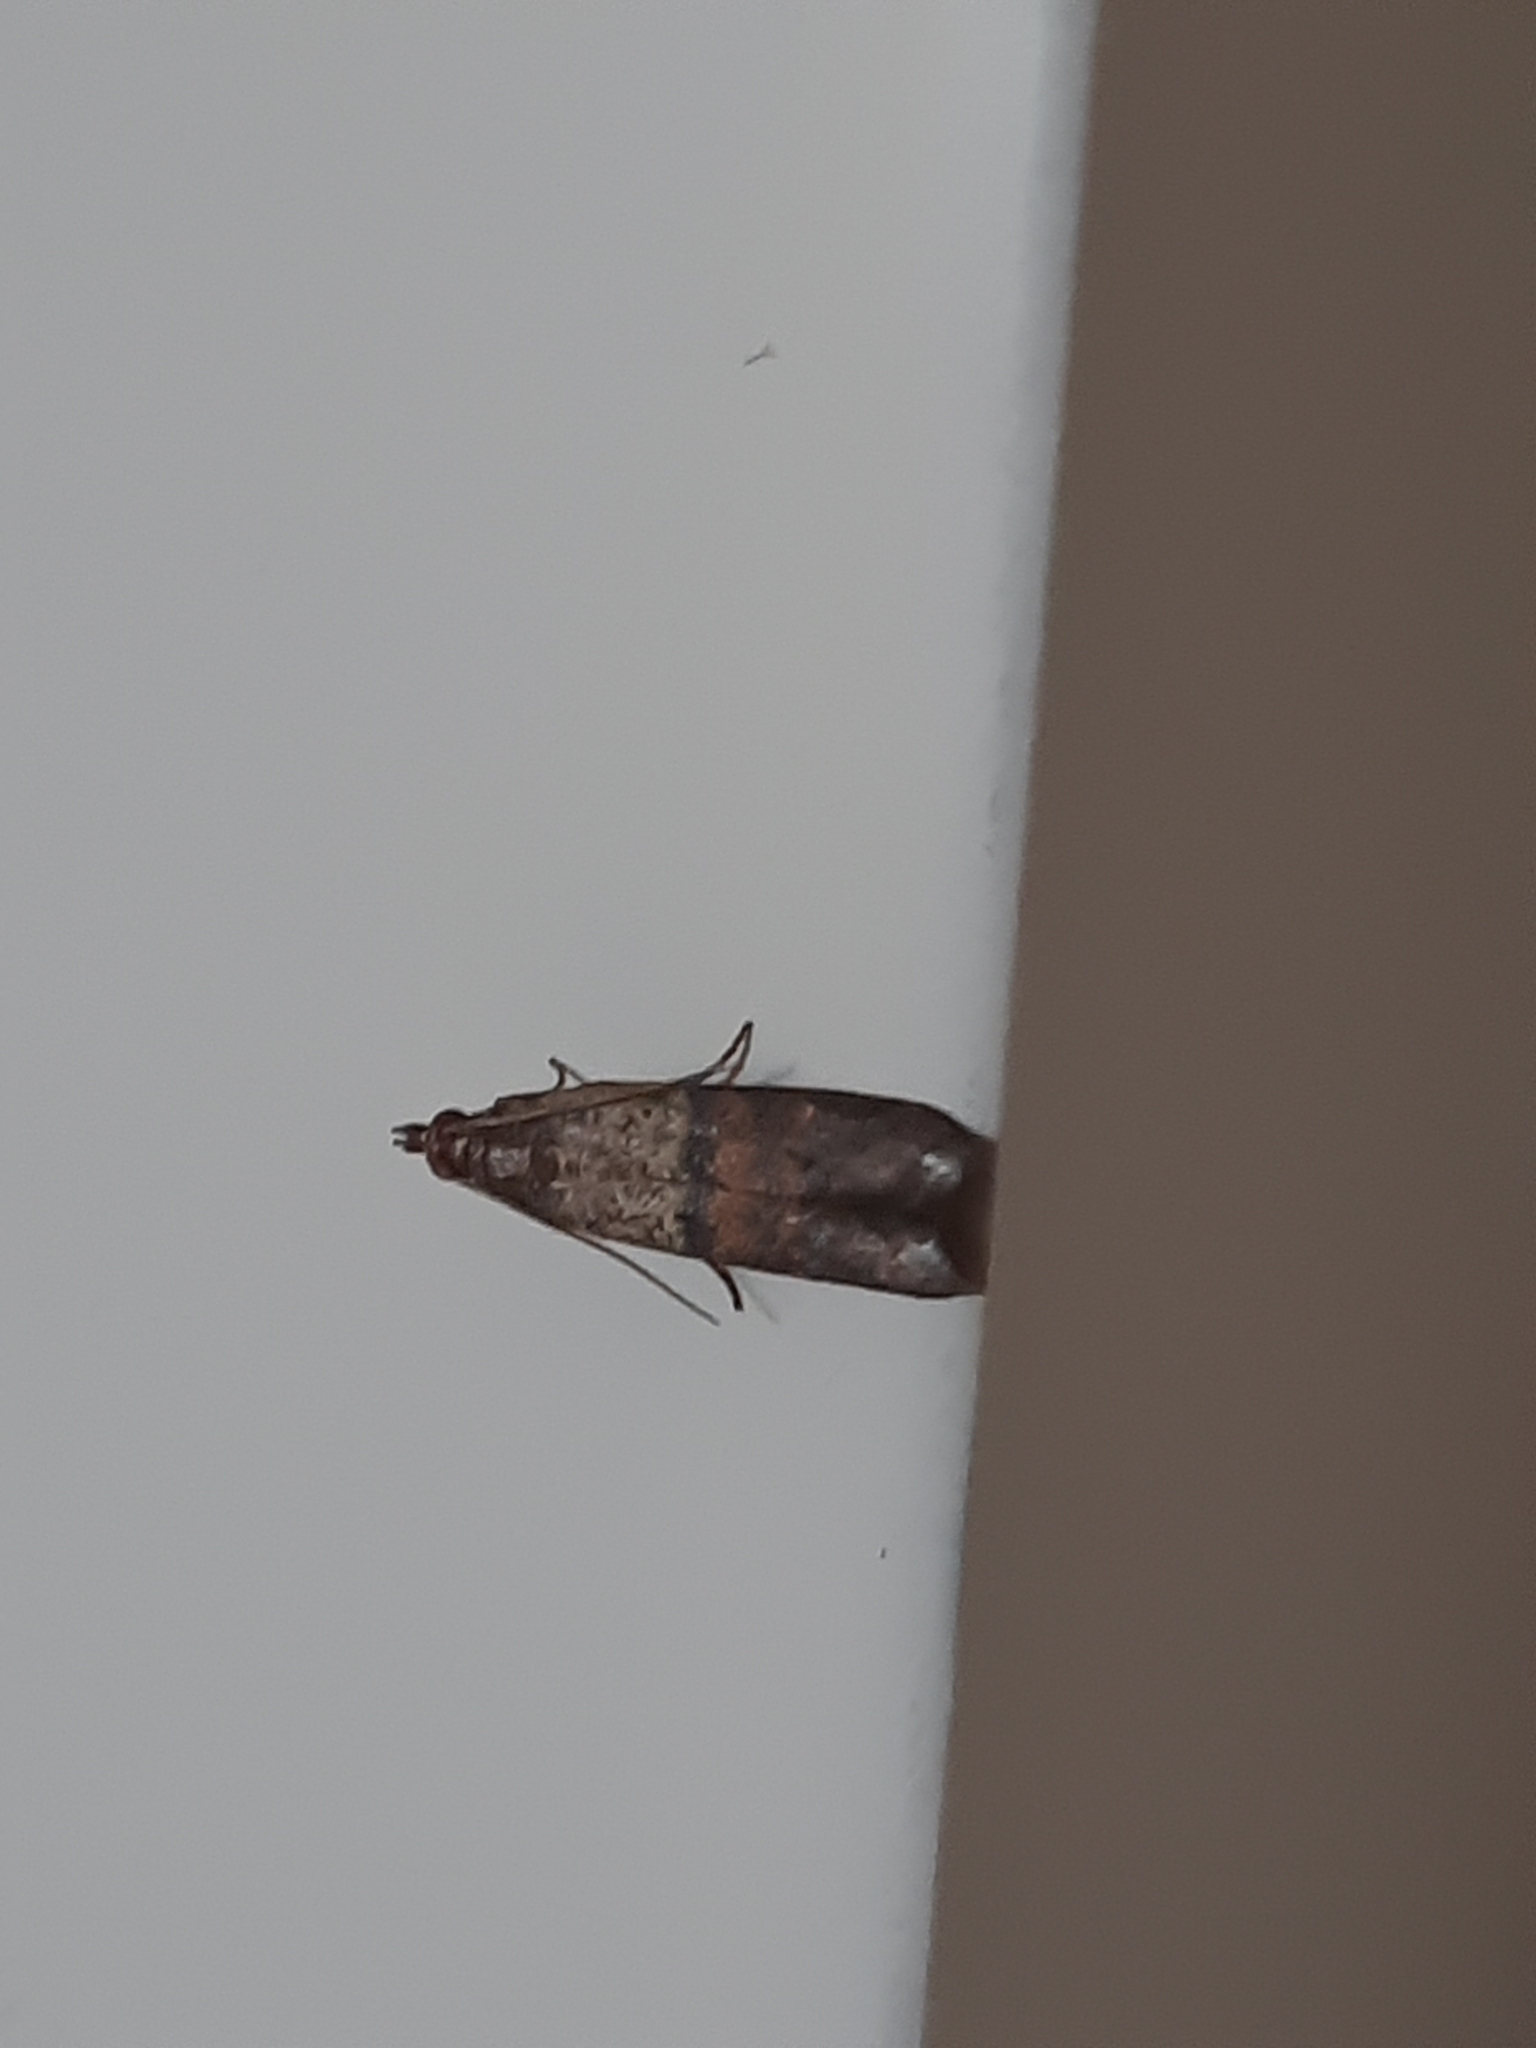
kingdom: Animalia
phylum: Arthropoda
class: Insecta
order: Lepidoptera
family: Pyralidae
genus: Plodia
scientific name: Plodia interpunctella
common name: Indian meal moth
